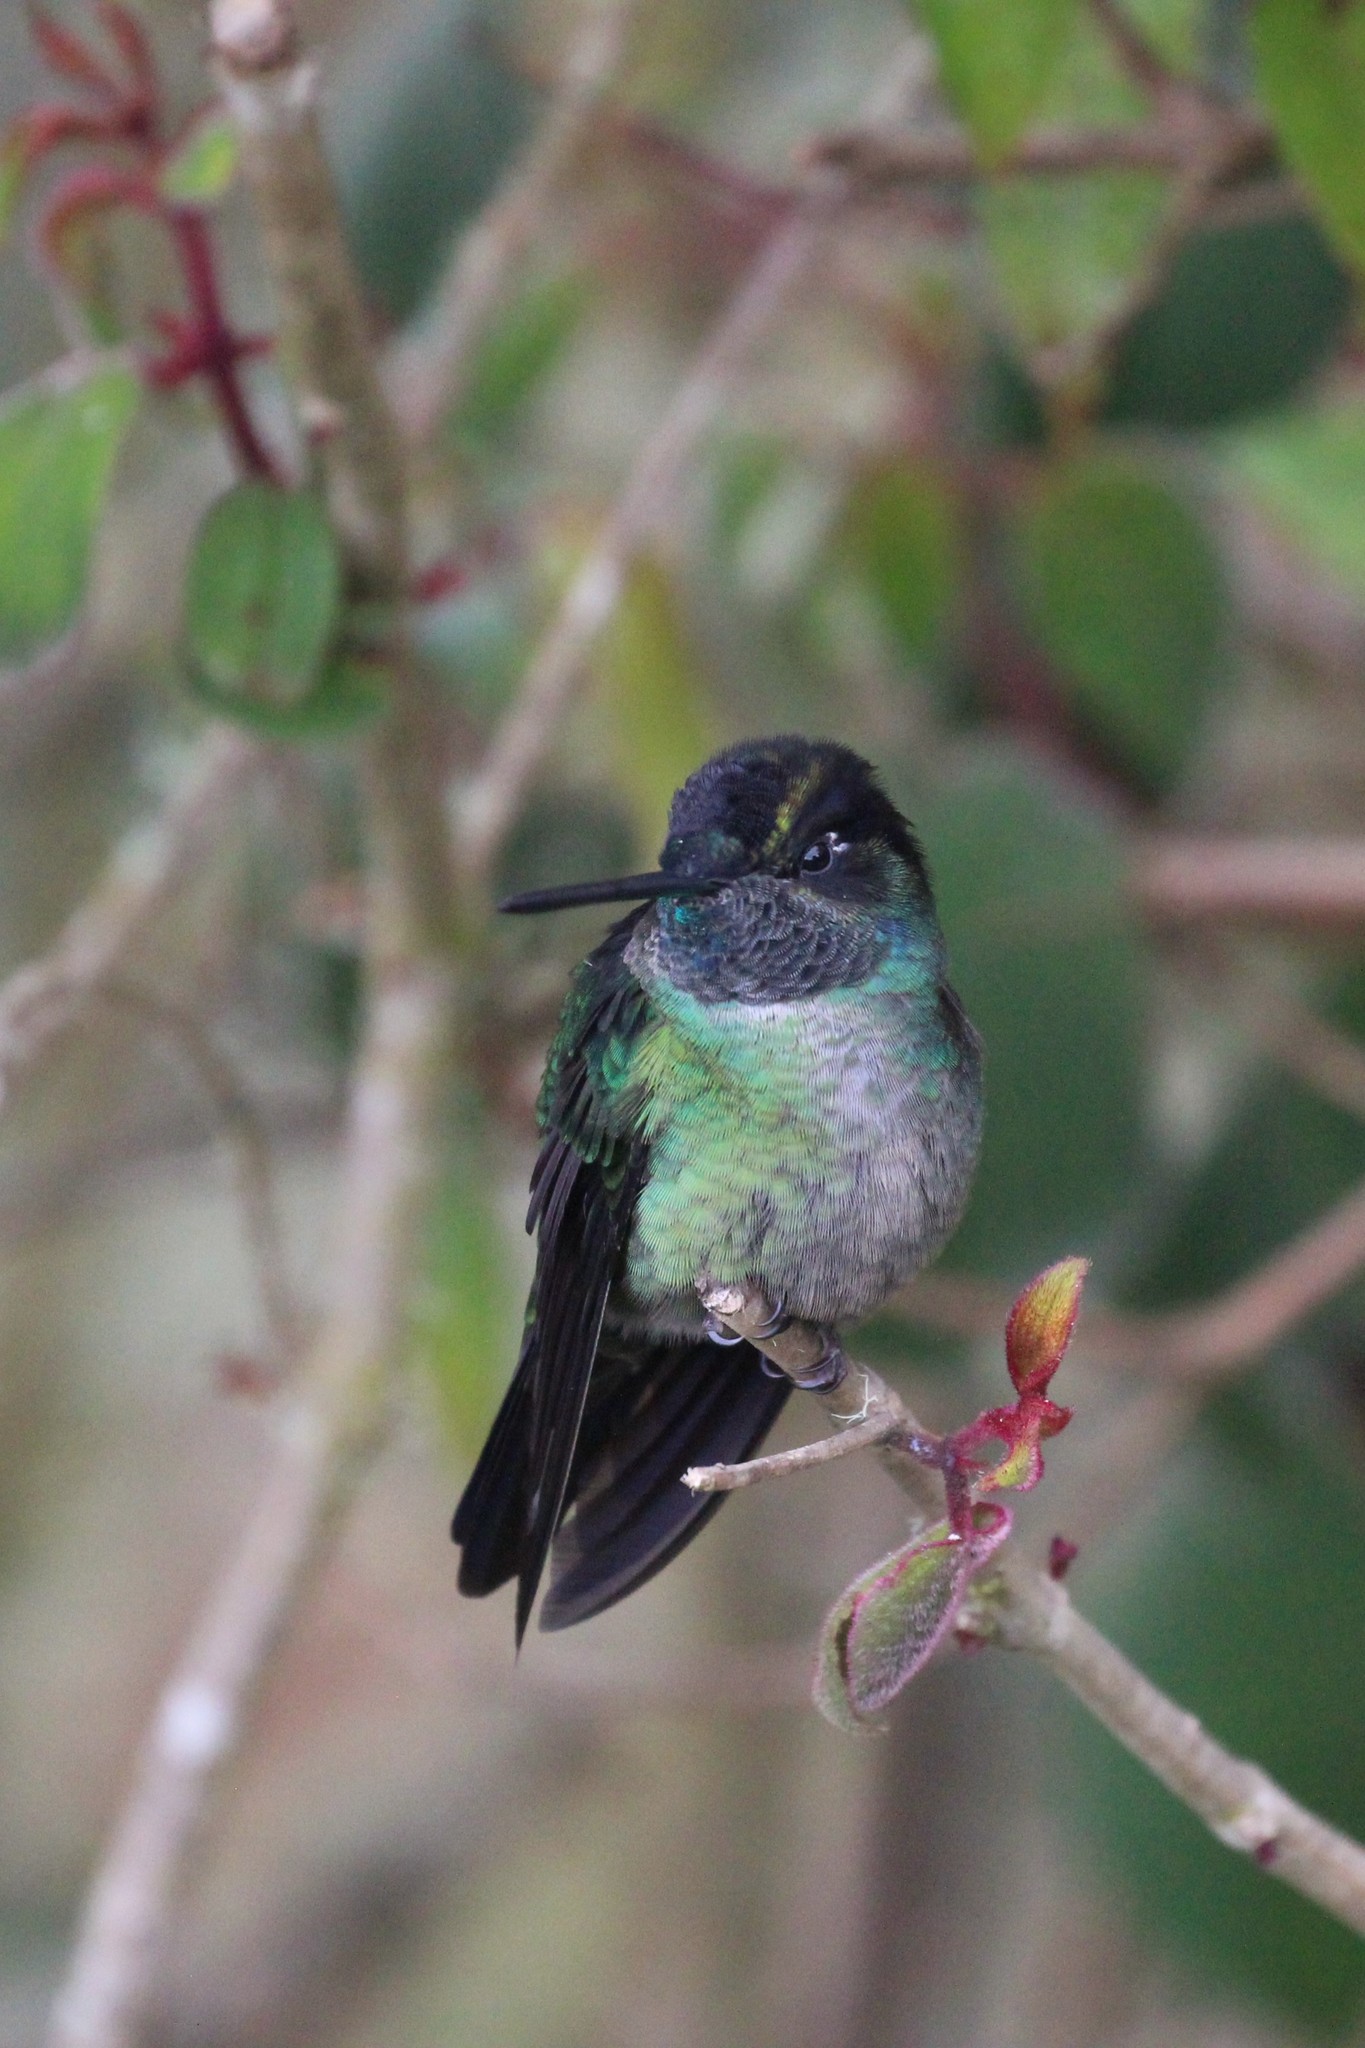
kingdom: Animalia
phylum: Chordata
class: Aves
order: Apodiformes
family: Trochilidae
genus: Eugenes
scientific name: Eugenes spectabilis
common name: Talamanca hummingbird
